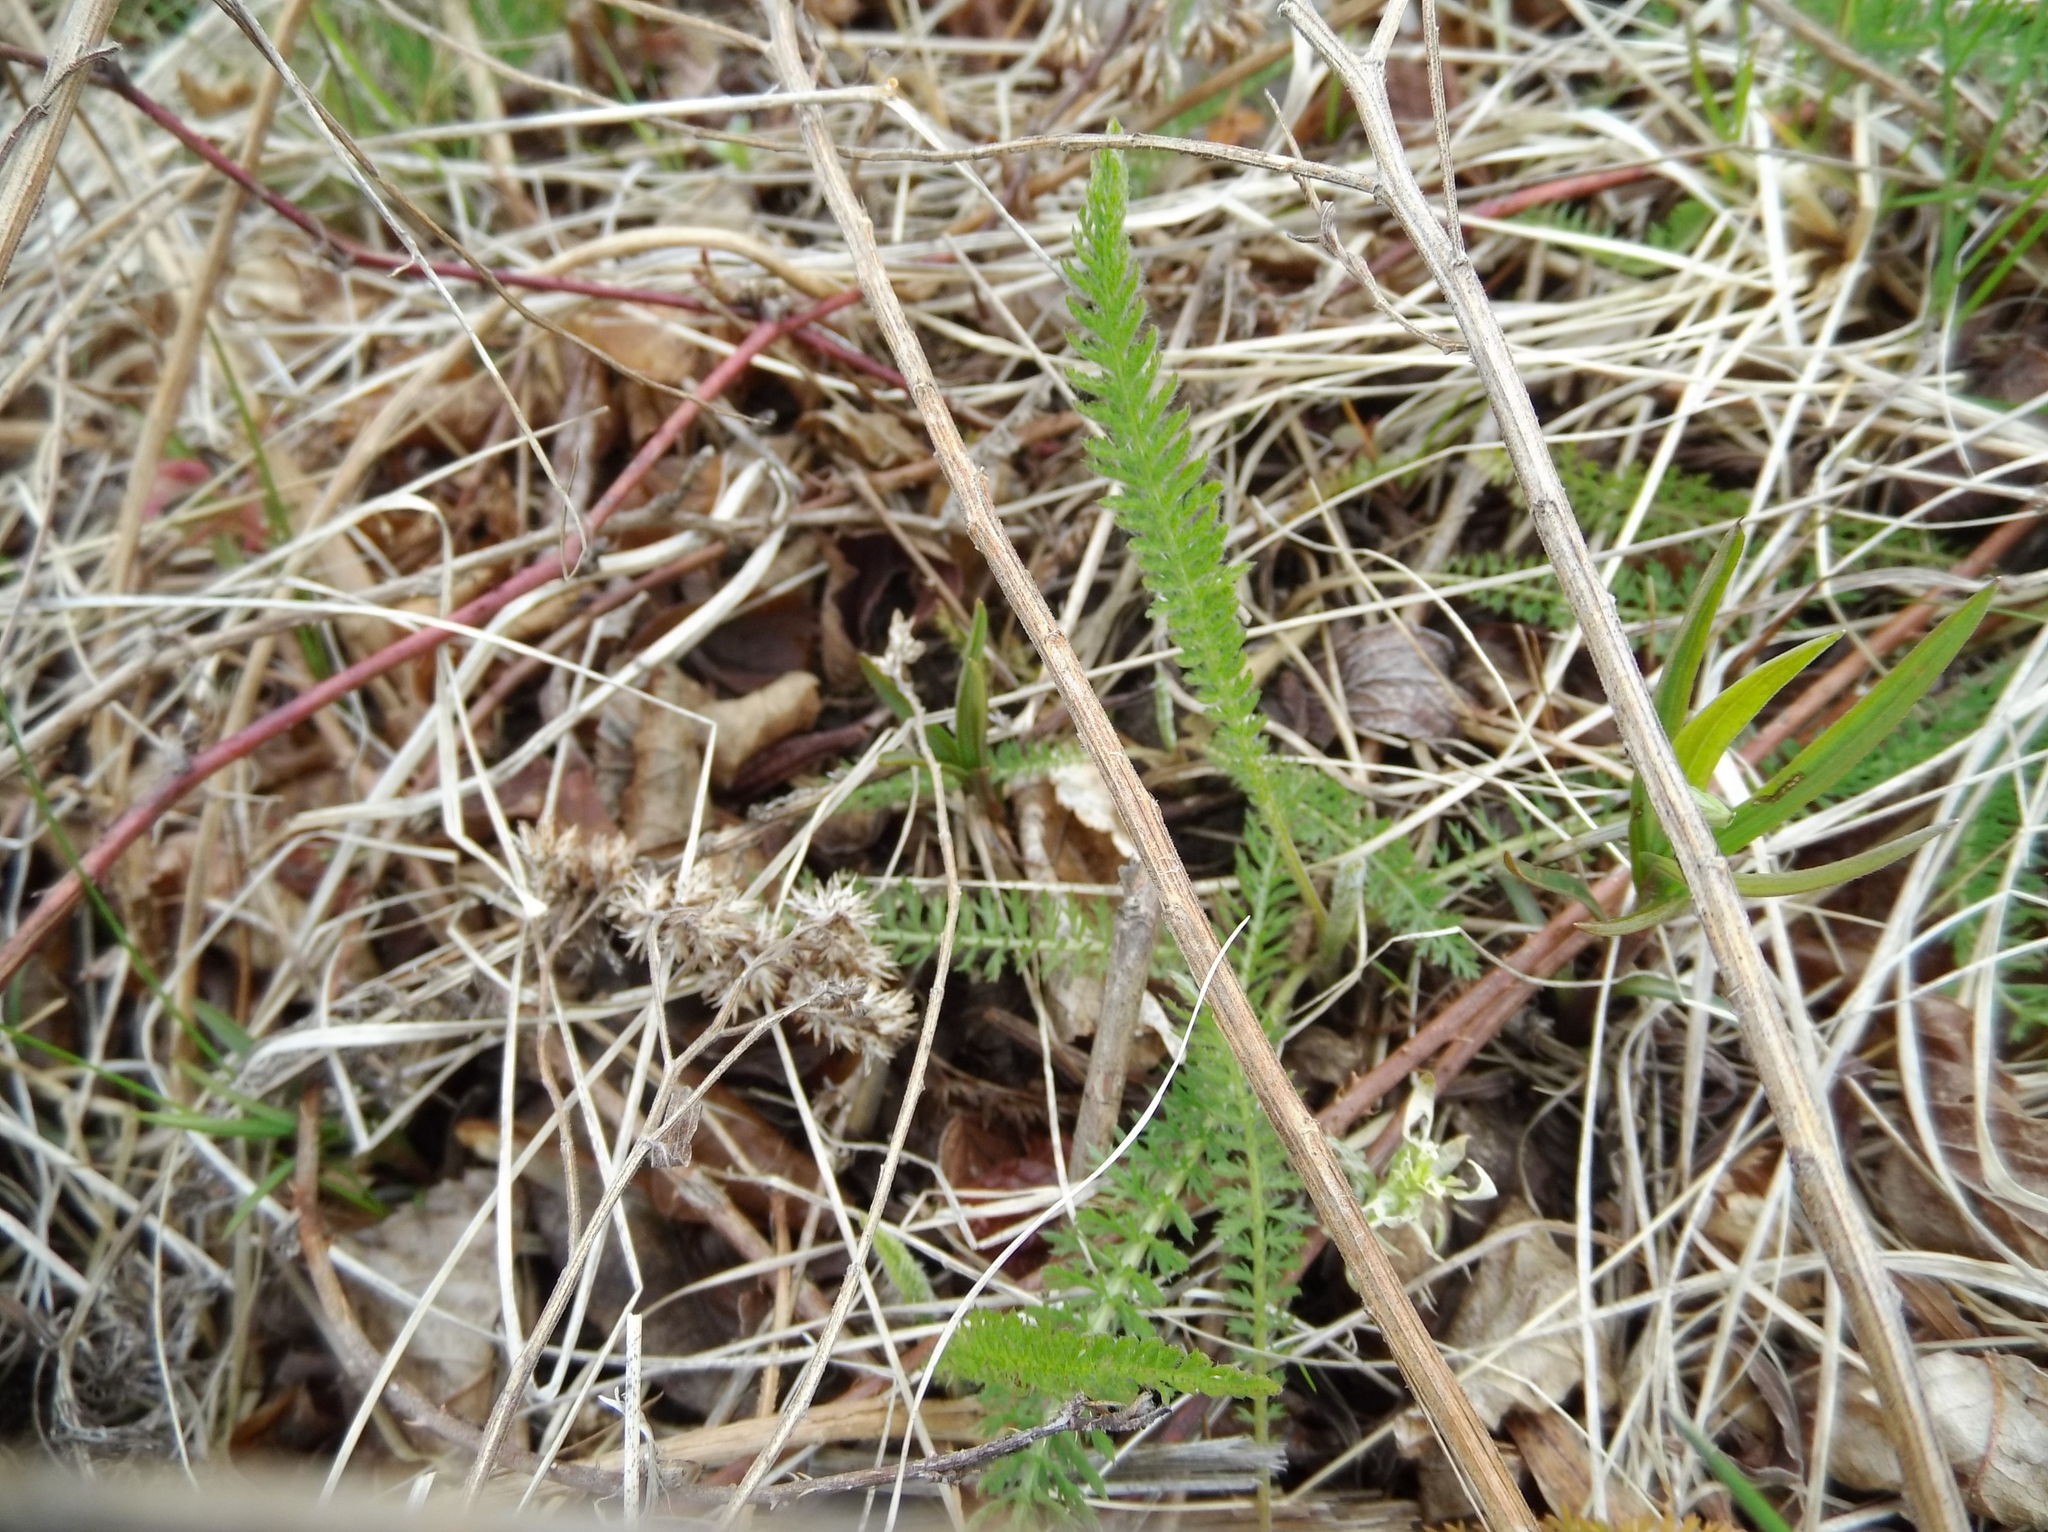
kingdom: Plantae
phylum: Tracheophyta
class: Magnoliopsida
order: Asterales
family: Asteraceae
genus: Achillea
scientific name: Achillea millefolium
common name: Yarrow
